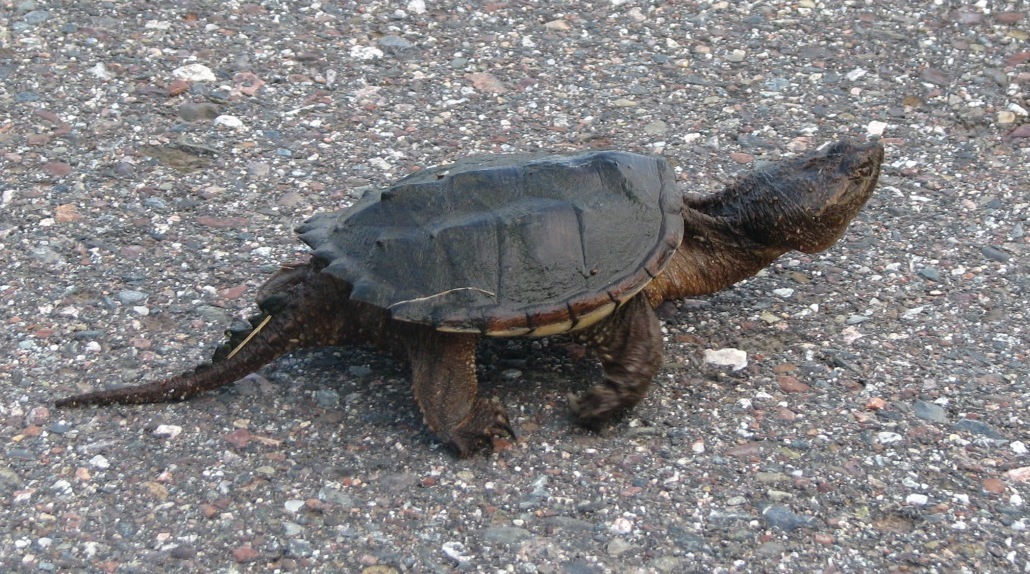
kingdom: Animalia
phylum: Chordata
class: Testudines
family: Chelydridae
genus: Chelydra
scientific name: Chelydra serpentina
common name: Common snapping turtle
